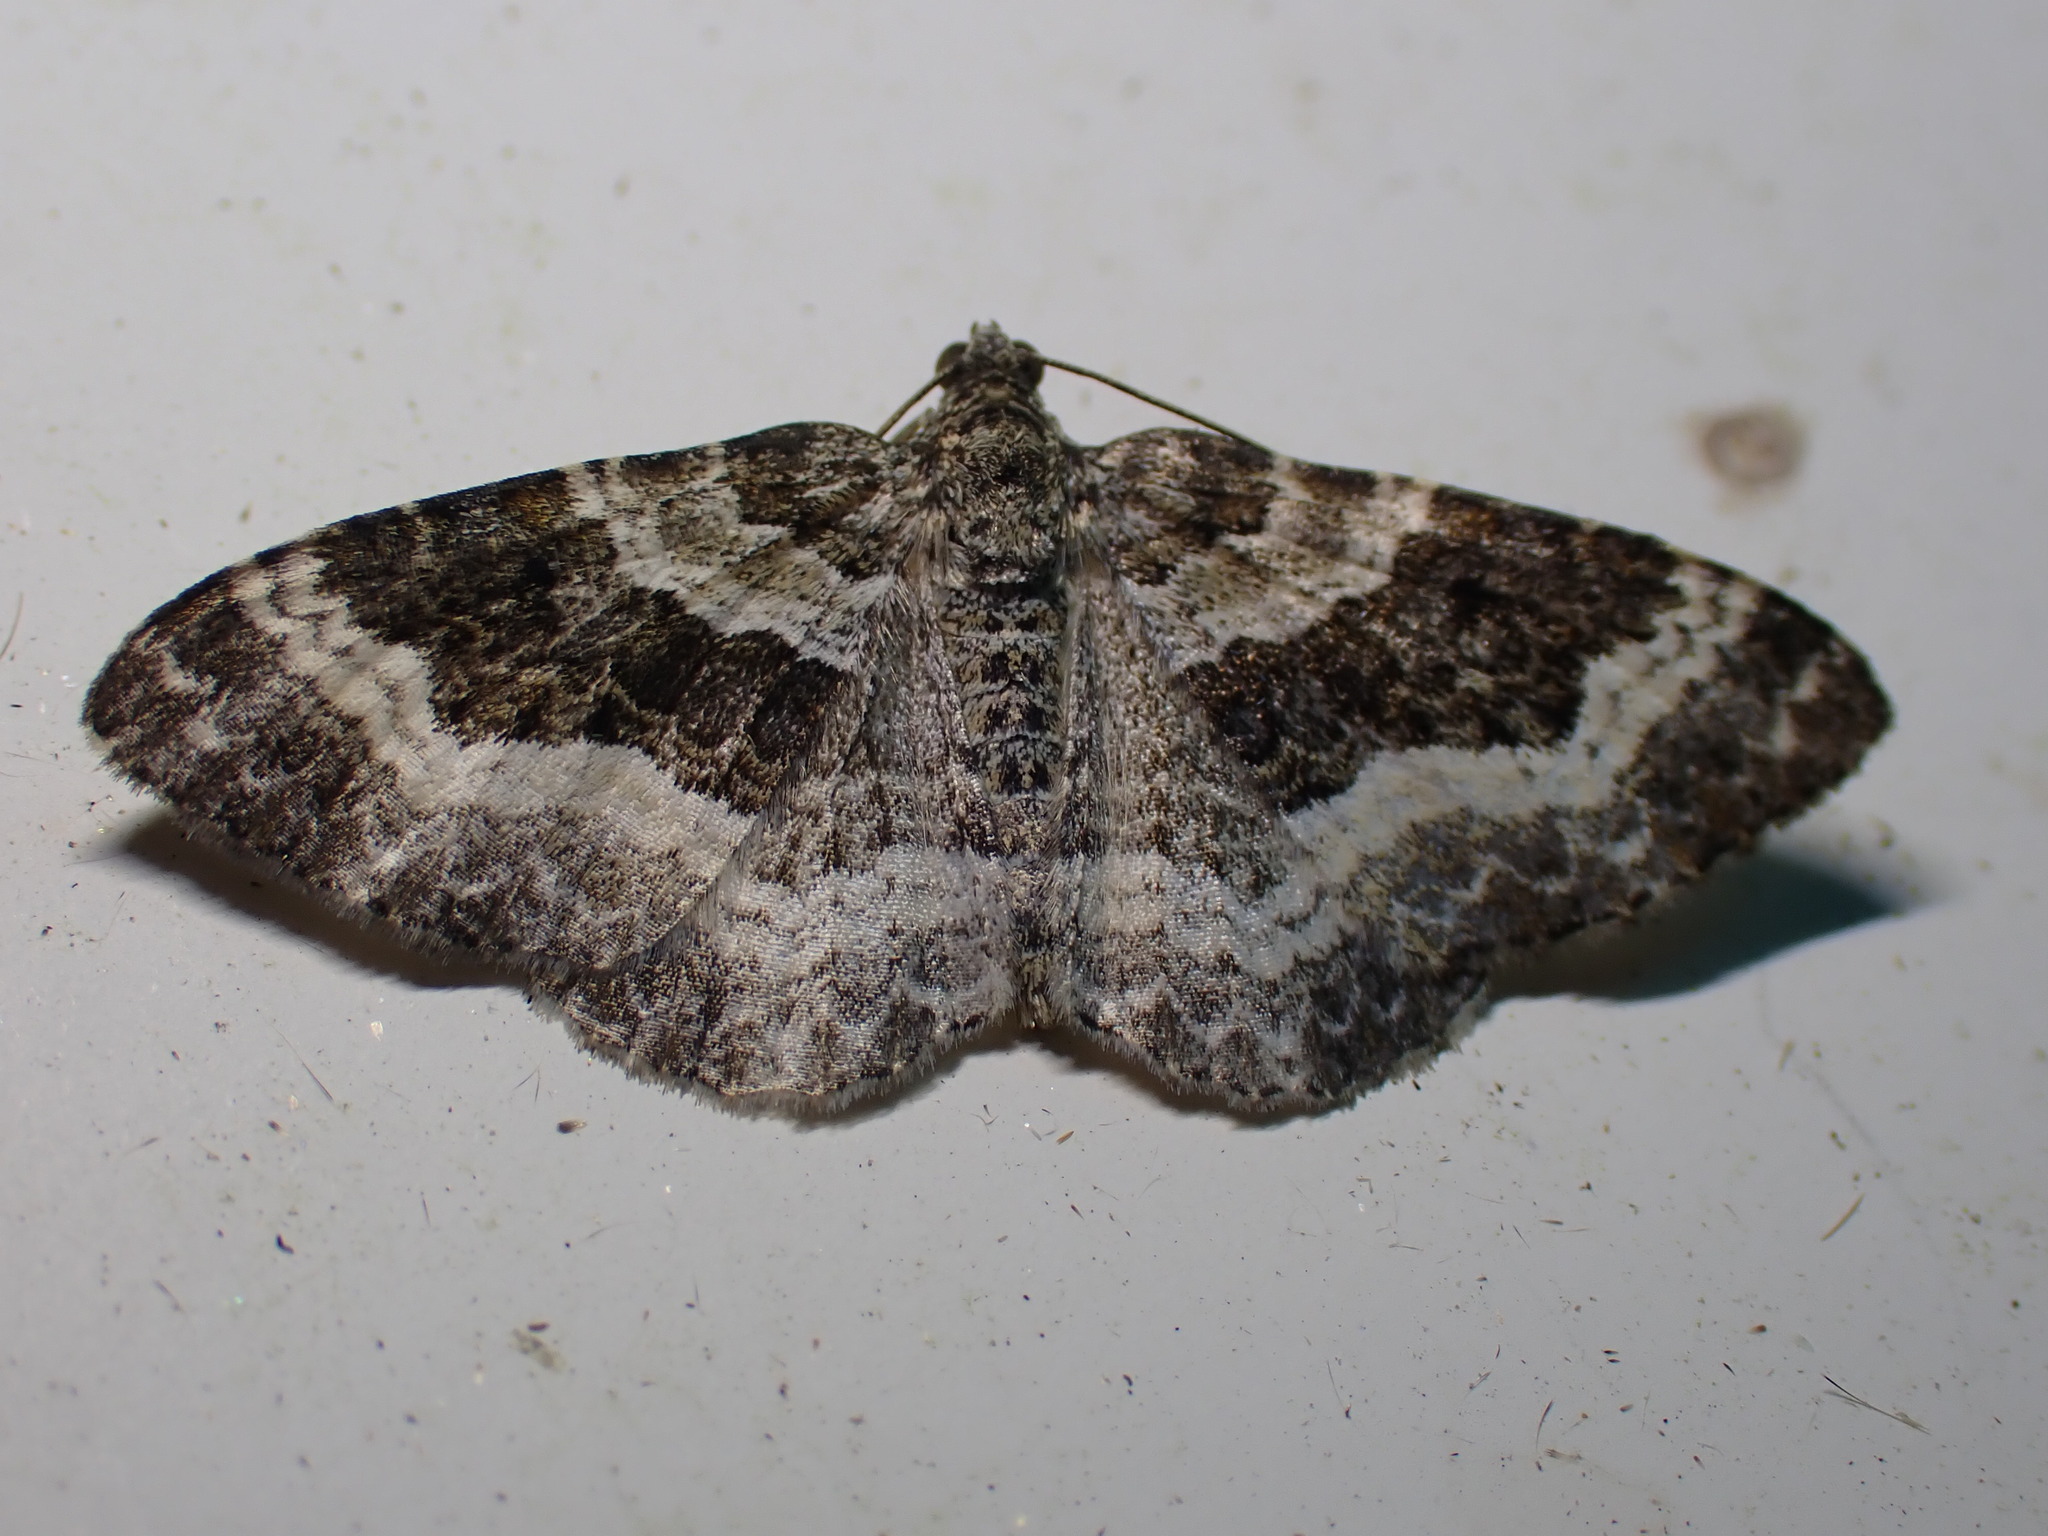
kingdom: Animalia
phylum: Arthropoda
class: Insecta
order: Lepidoptera
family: Geometridae
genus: Epirrhoe
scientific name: Epirrhoe alternata
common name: Common carpet
